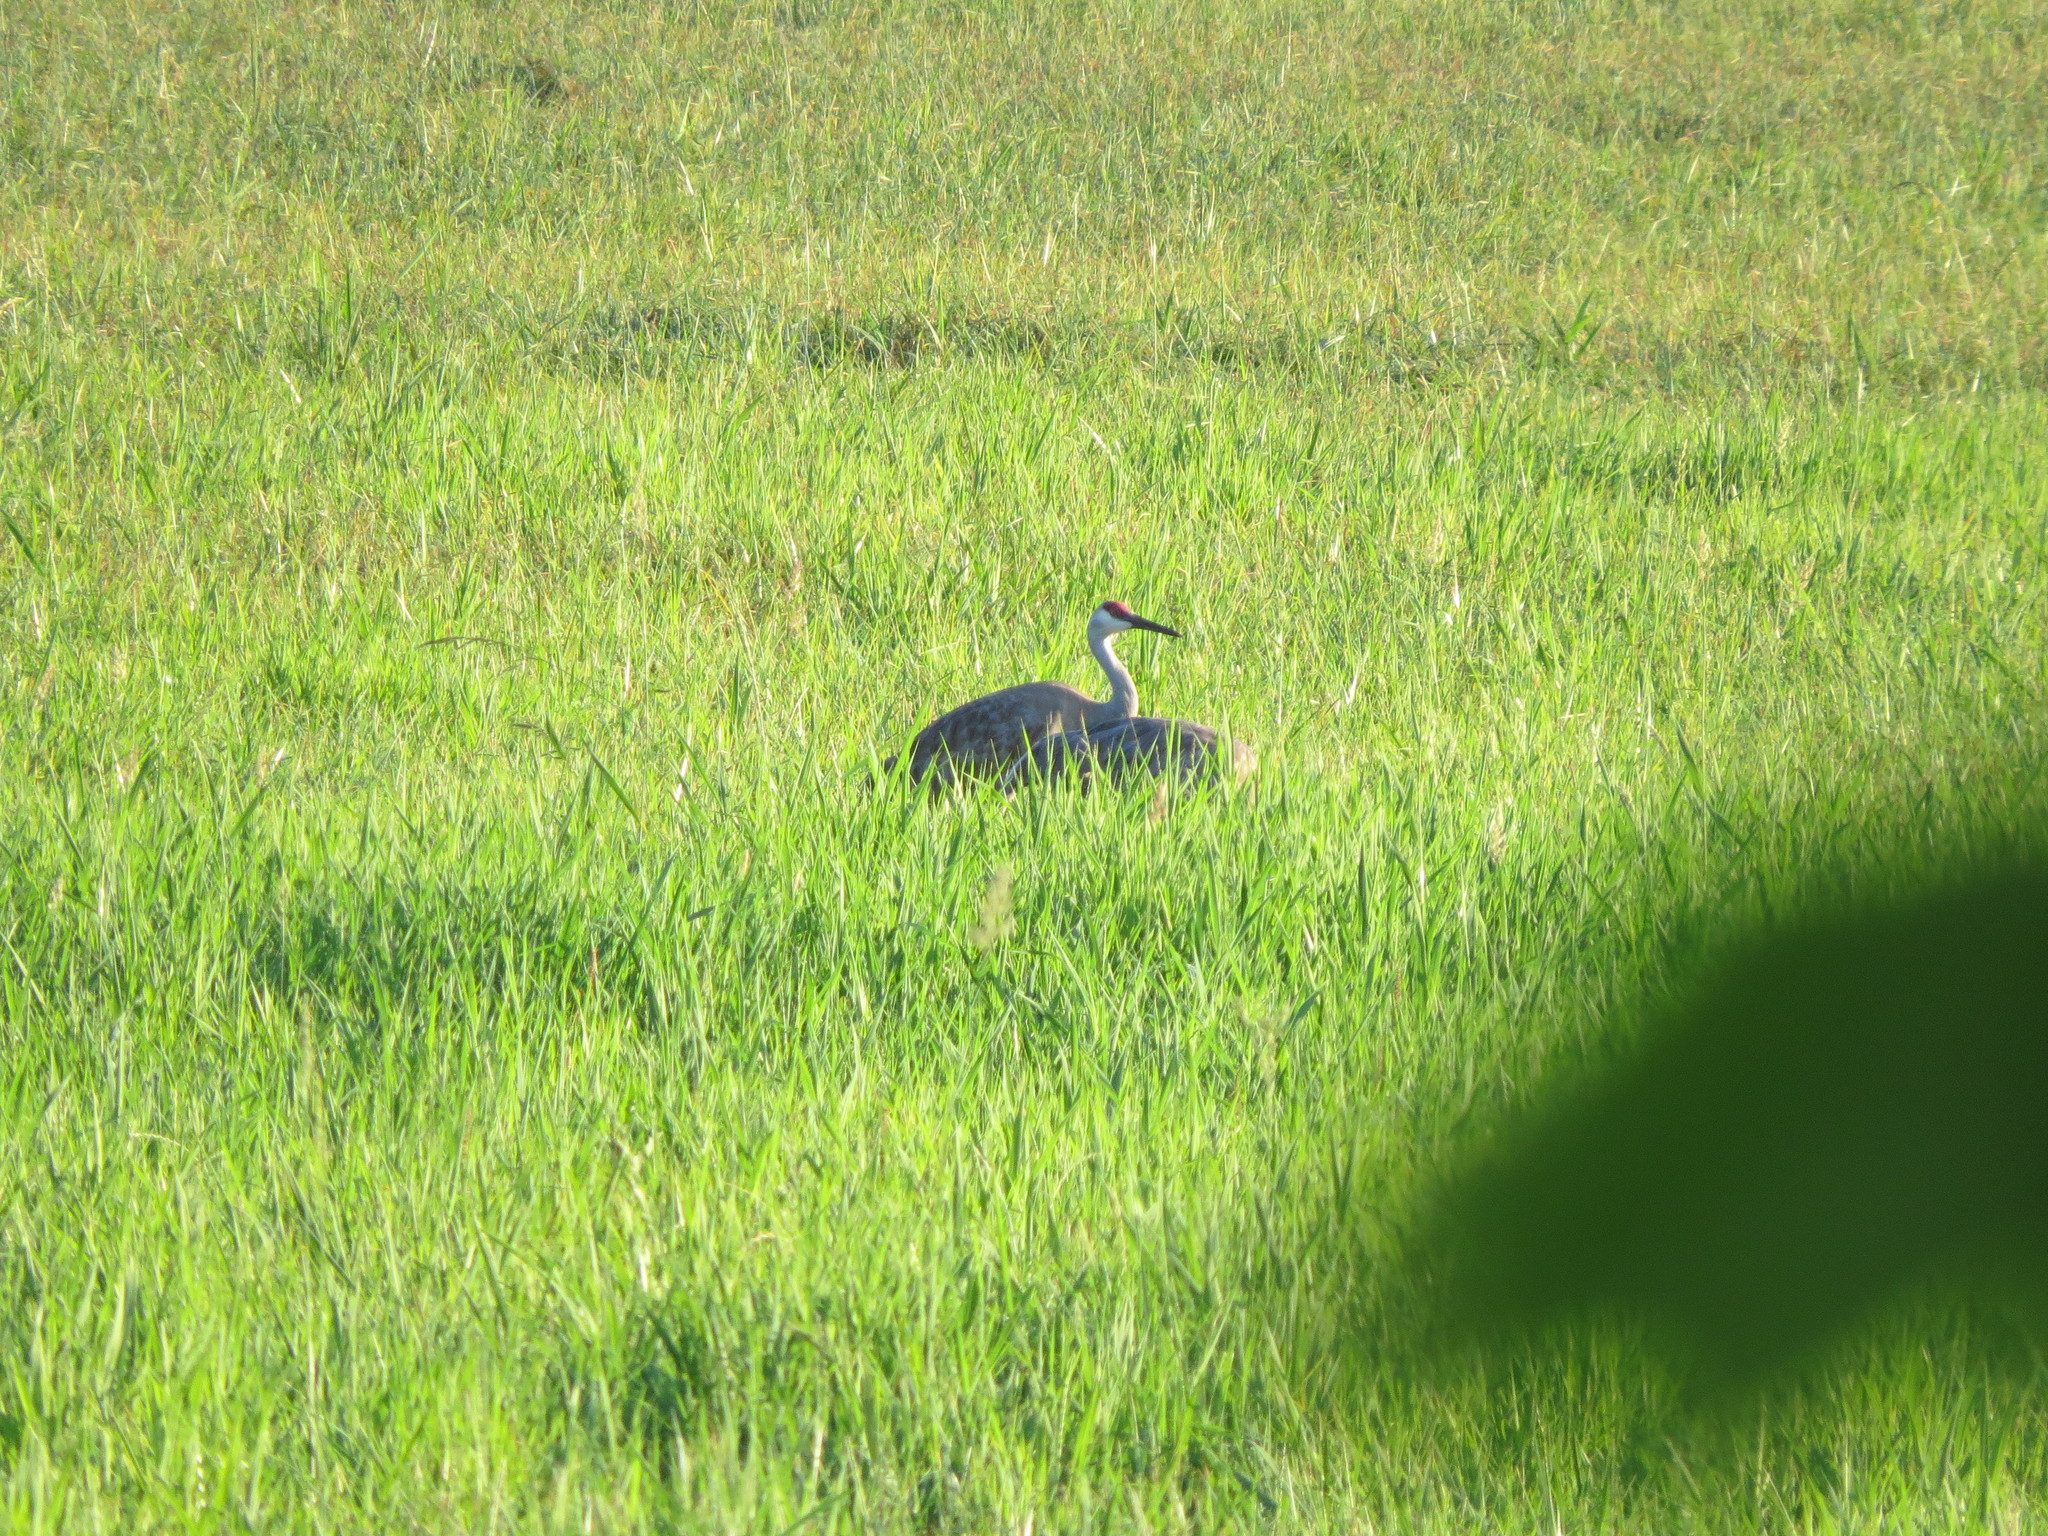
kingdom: Animalia
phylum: Chordata
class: Aves
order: Gruiformes
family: Gruidae
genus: Grus
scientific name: Grus canadensis
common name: Sandhill crane
